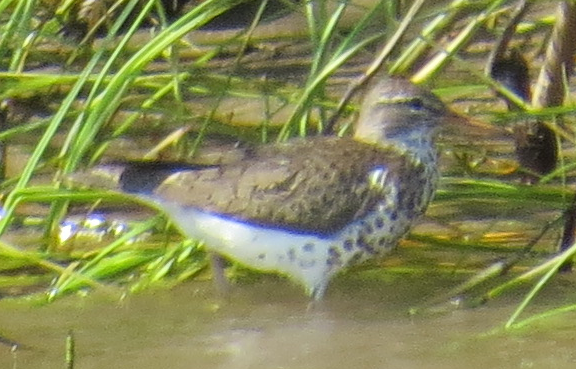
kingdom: Animalia
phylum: Chordata
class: Aves
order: Charadriiformes
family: Scolopacidae
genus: Actitis
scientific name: Actitis macularius
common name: Spotted sandpiper
